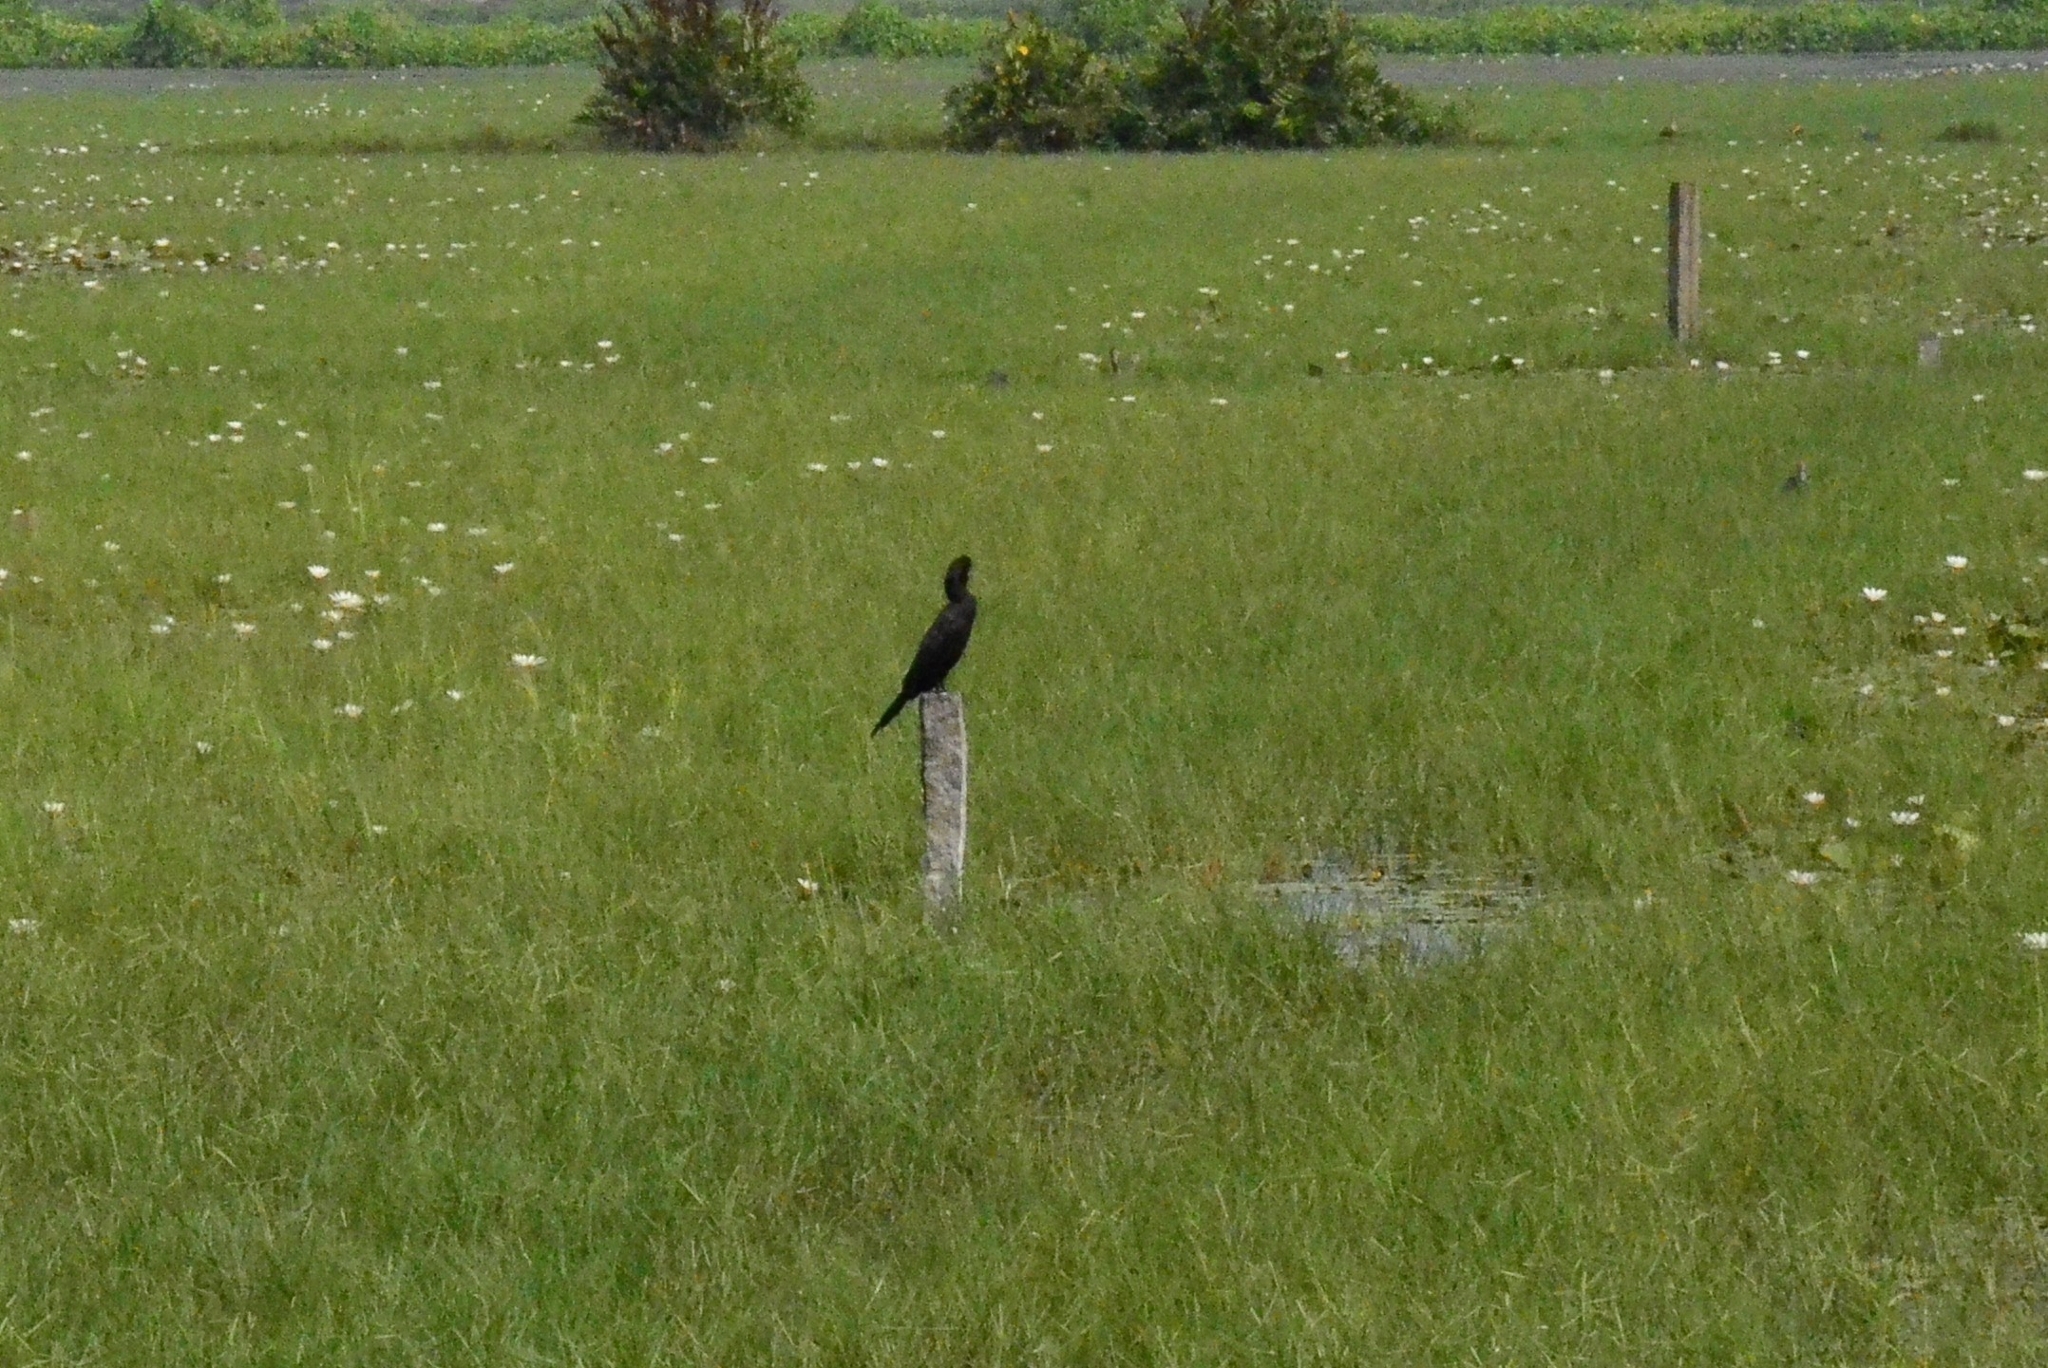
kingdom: Animalia
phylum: Chordata
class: Aves
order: Suliformes
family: Phalacrocoracidae
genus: Microcarbo
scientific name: Microcarbo niger
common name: Little cormorant
